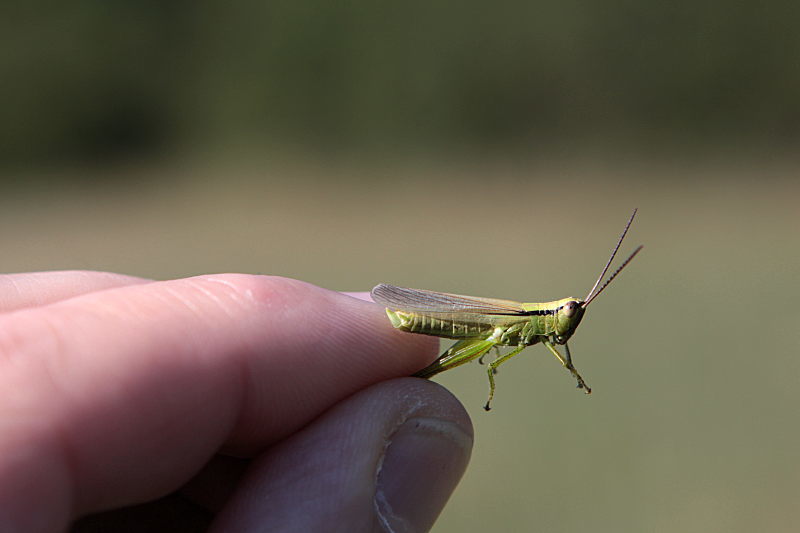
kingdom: Animalia
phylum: Arthropoda
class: Insecta
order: Orthoptera
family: Acrididae
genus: Mecostethus
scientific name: Mecostethus parapleurus
